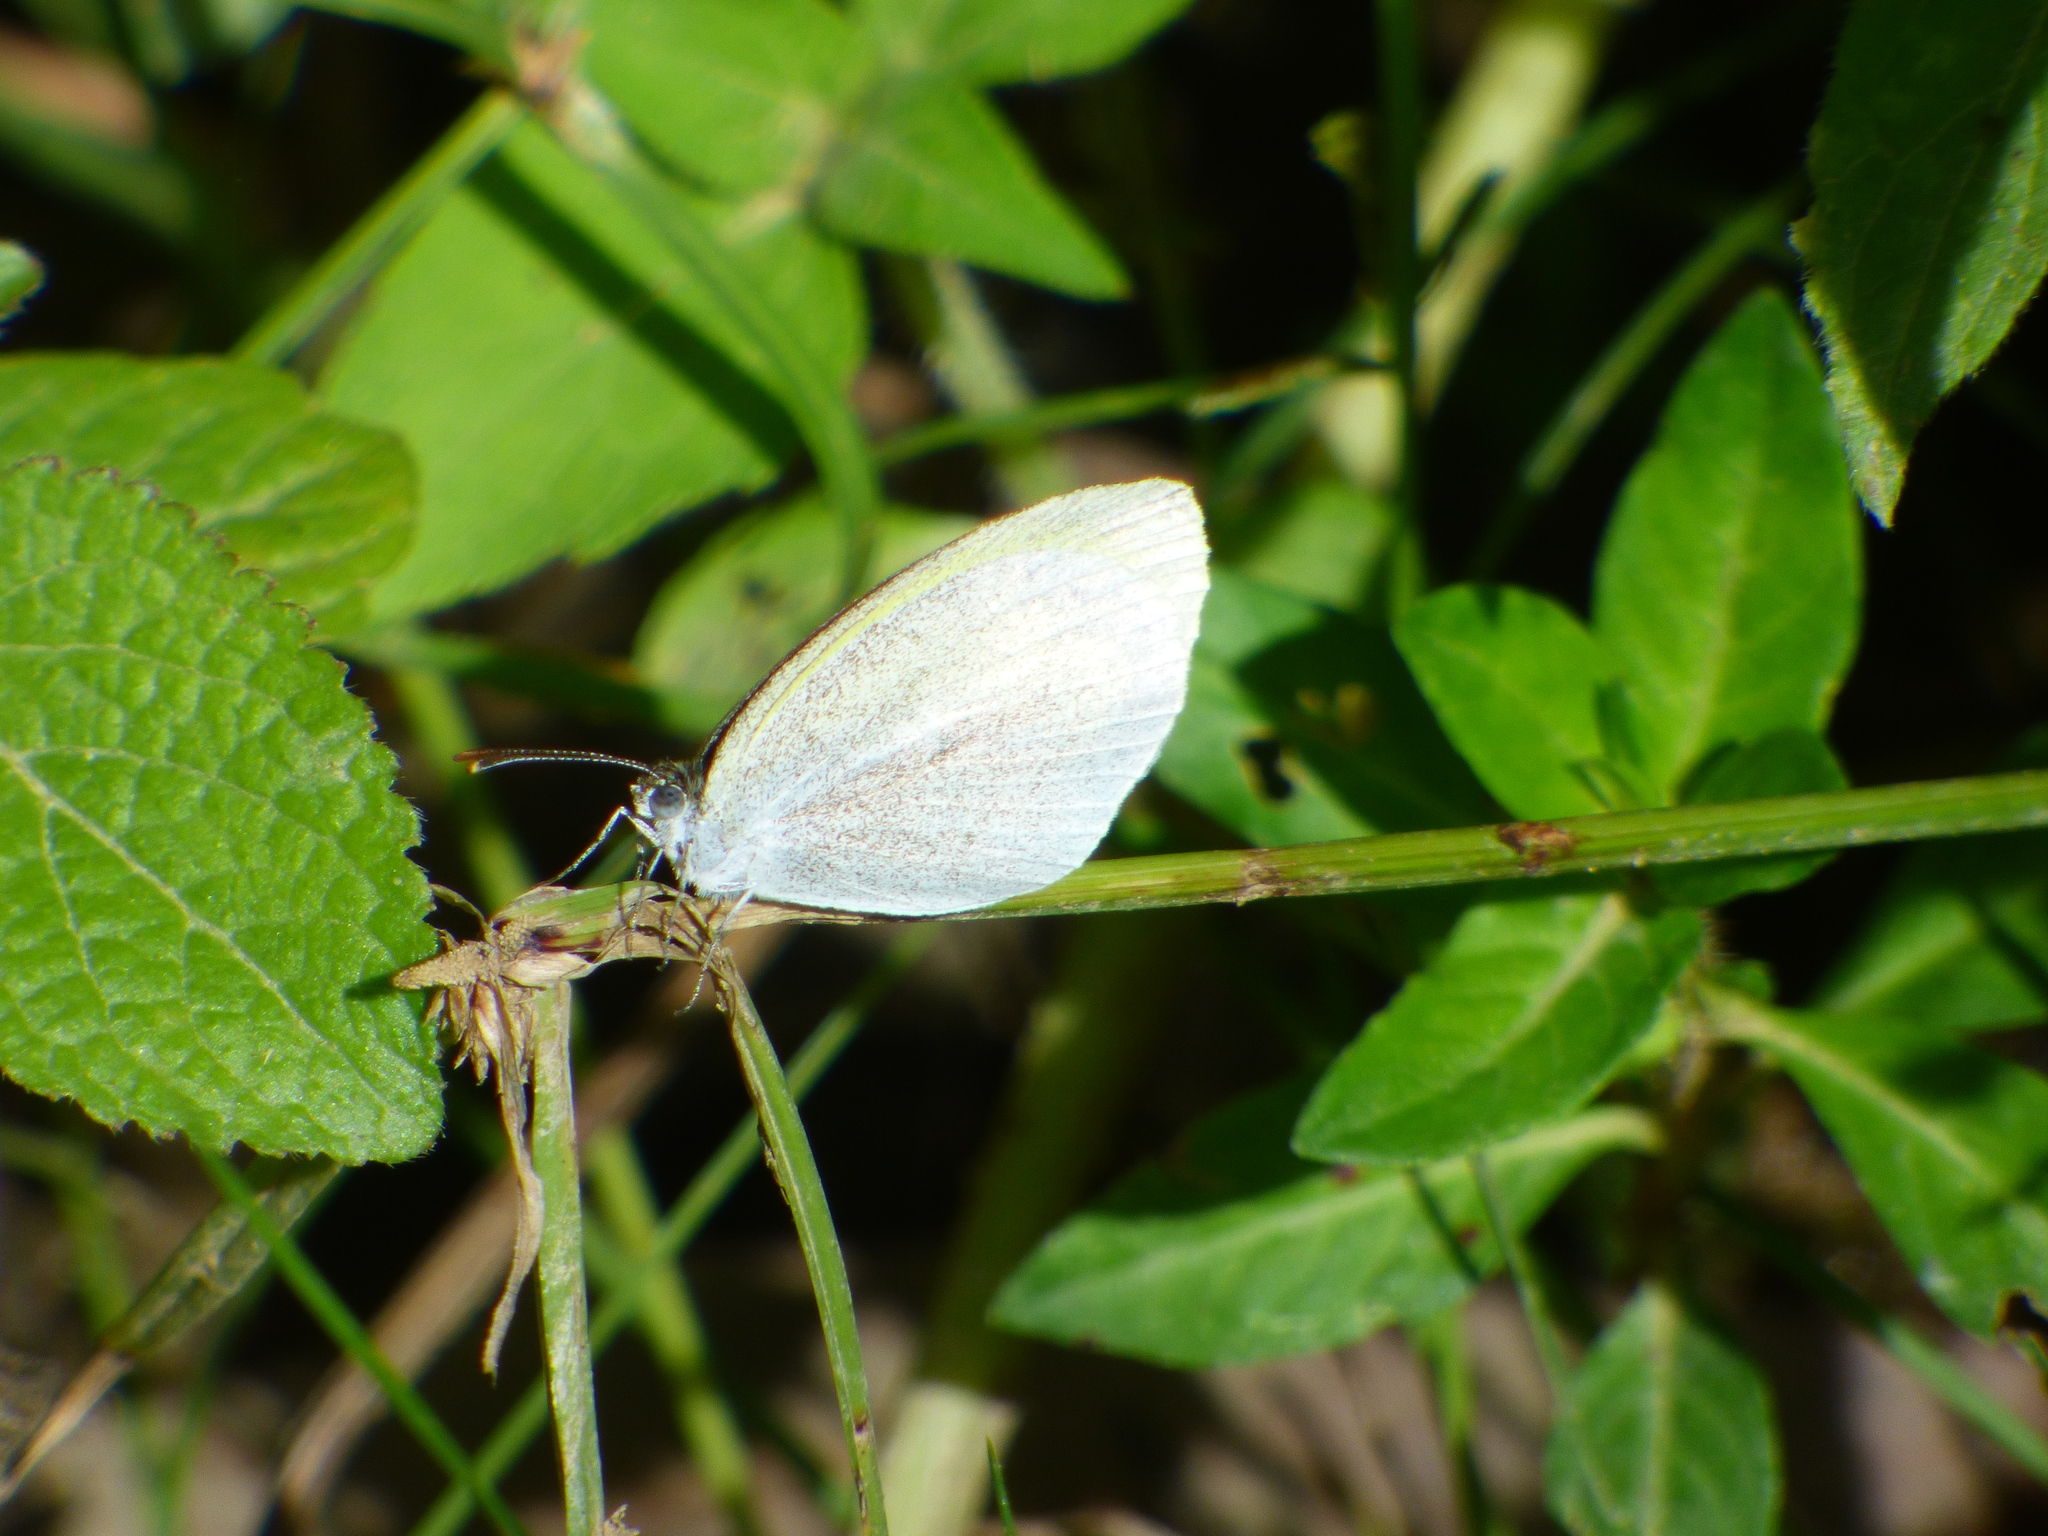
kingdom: Animalia
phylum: Arthropoda
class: Insecta
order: Lepidoptera
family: Pieridae
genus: Eurema
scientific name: Eurema elathea
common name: Banded yellow
